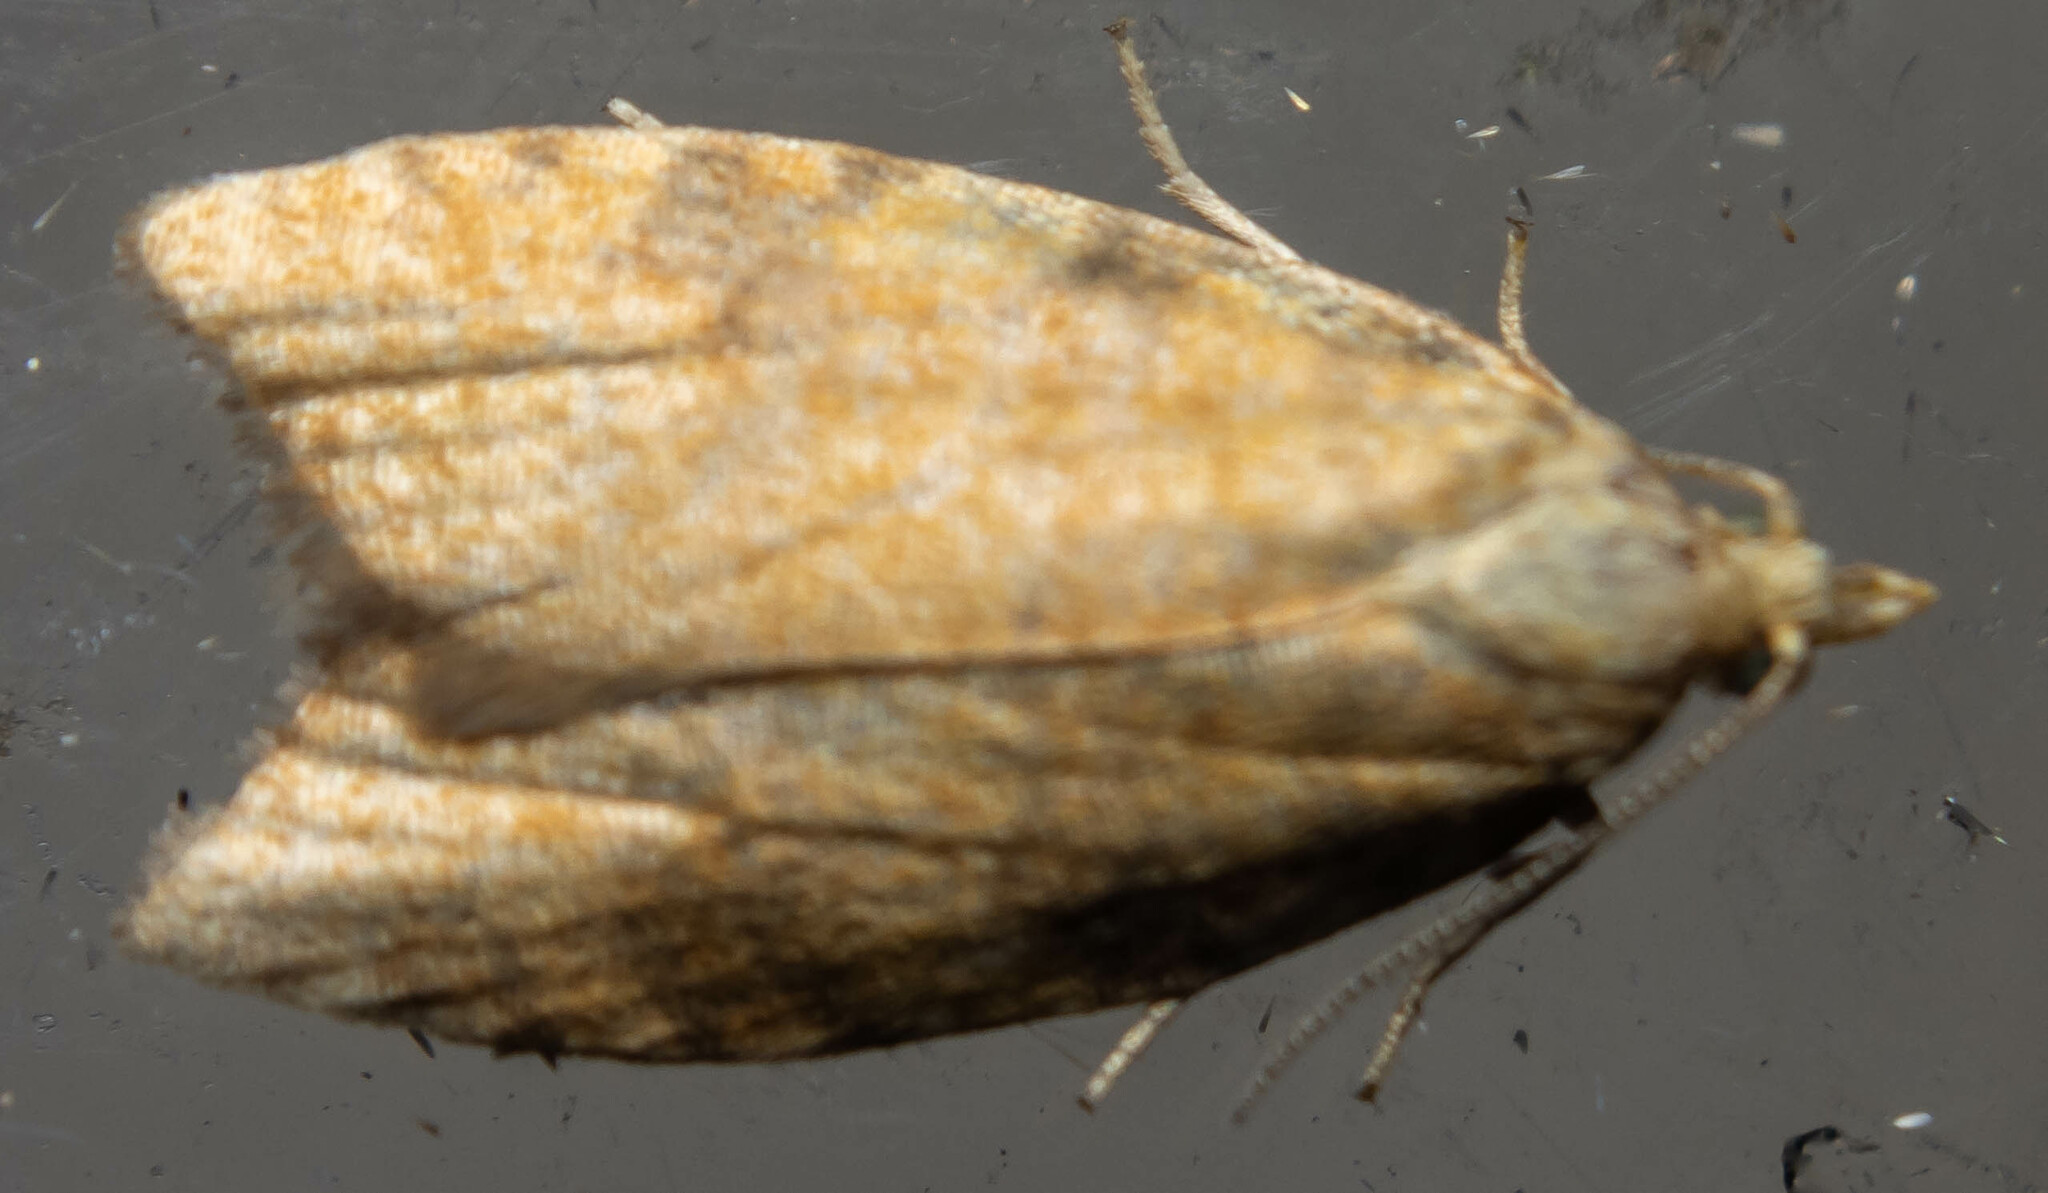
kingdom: Animalia
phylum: Arthropoda
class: Insecta
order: Lepidoptera
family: Tortricidae
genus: Aleimma
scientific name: Aleimma loeflingiana
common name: Yellow oak button
